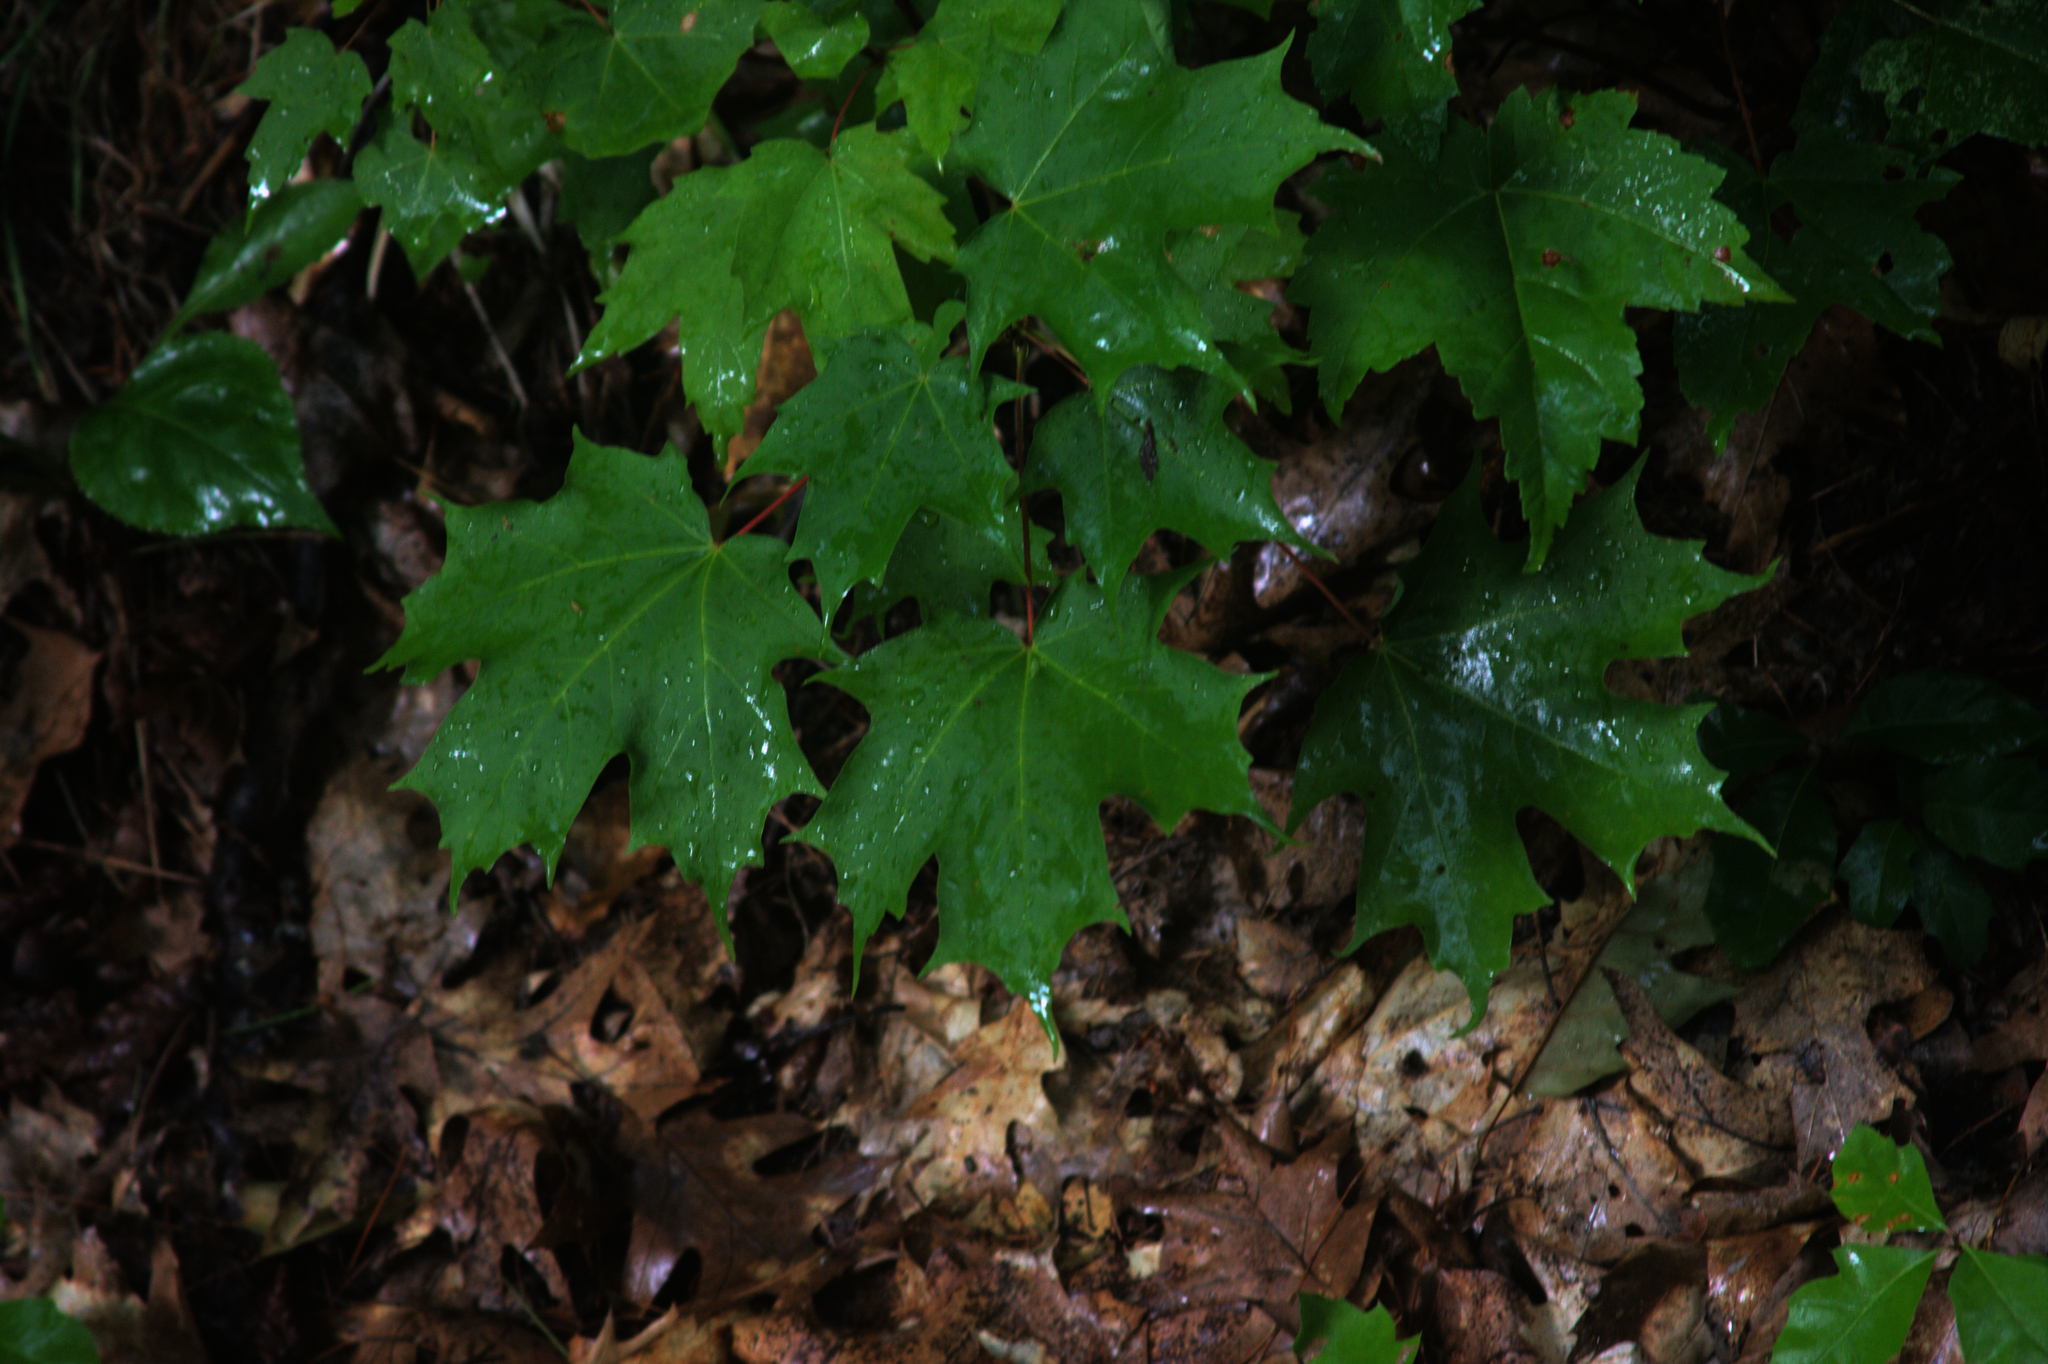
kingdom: Plantae
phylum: Tracheophyta
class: Magnoliopsida
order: Sapindales
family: Sapindaceae
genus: Acer
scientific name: Acer saccharum
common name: Sugar maple
